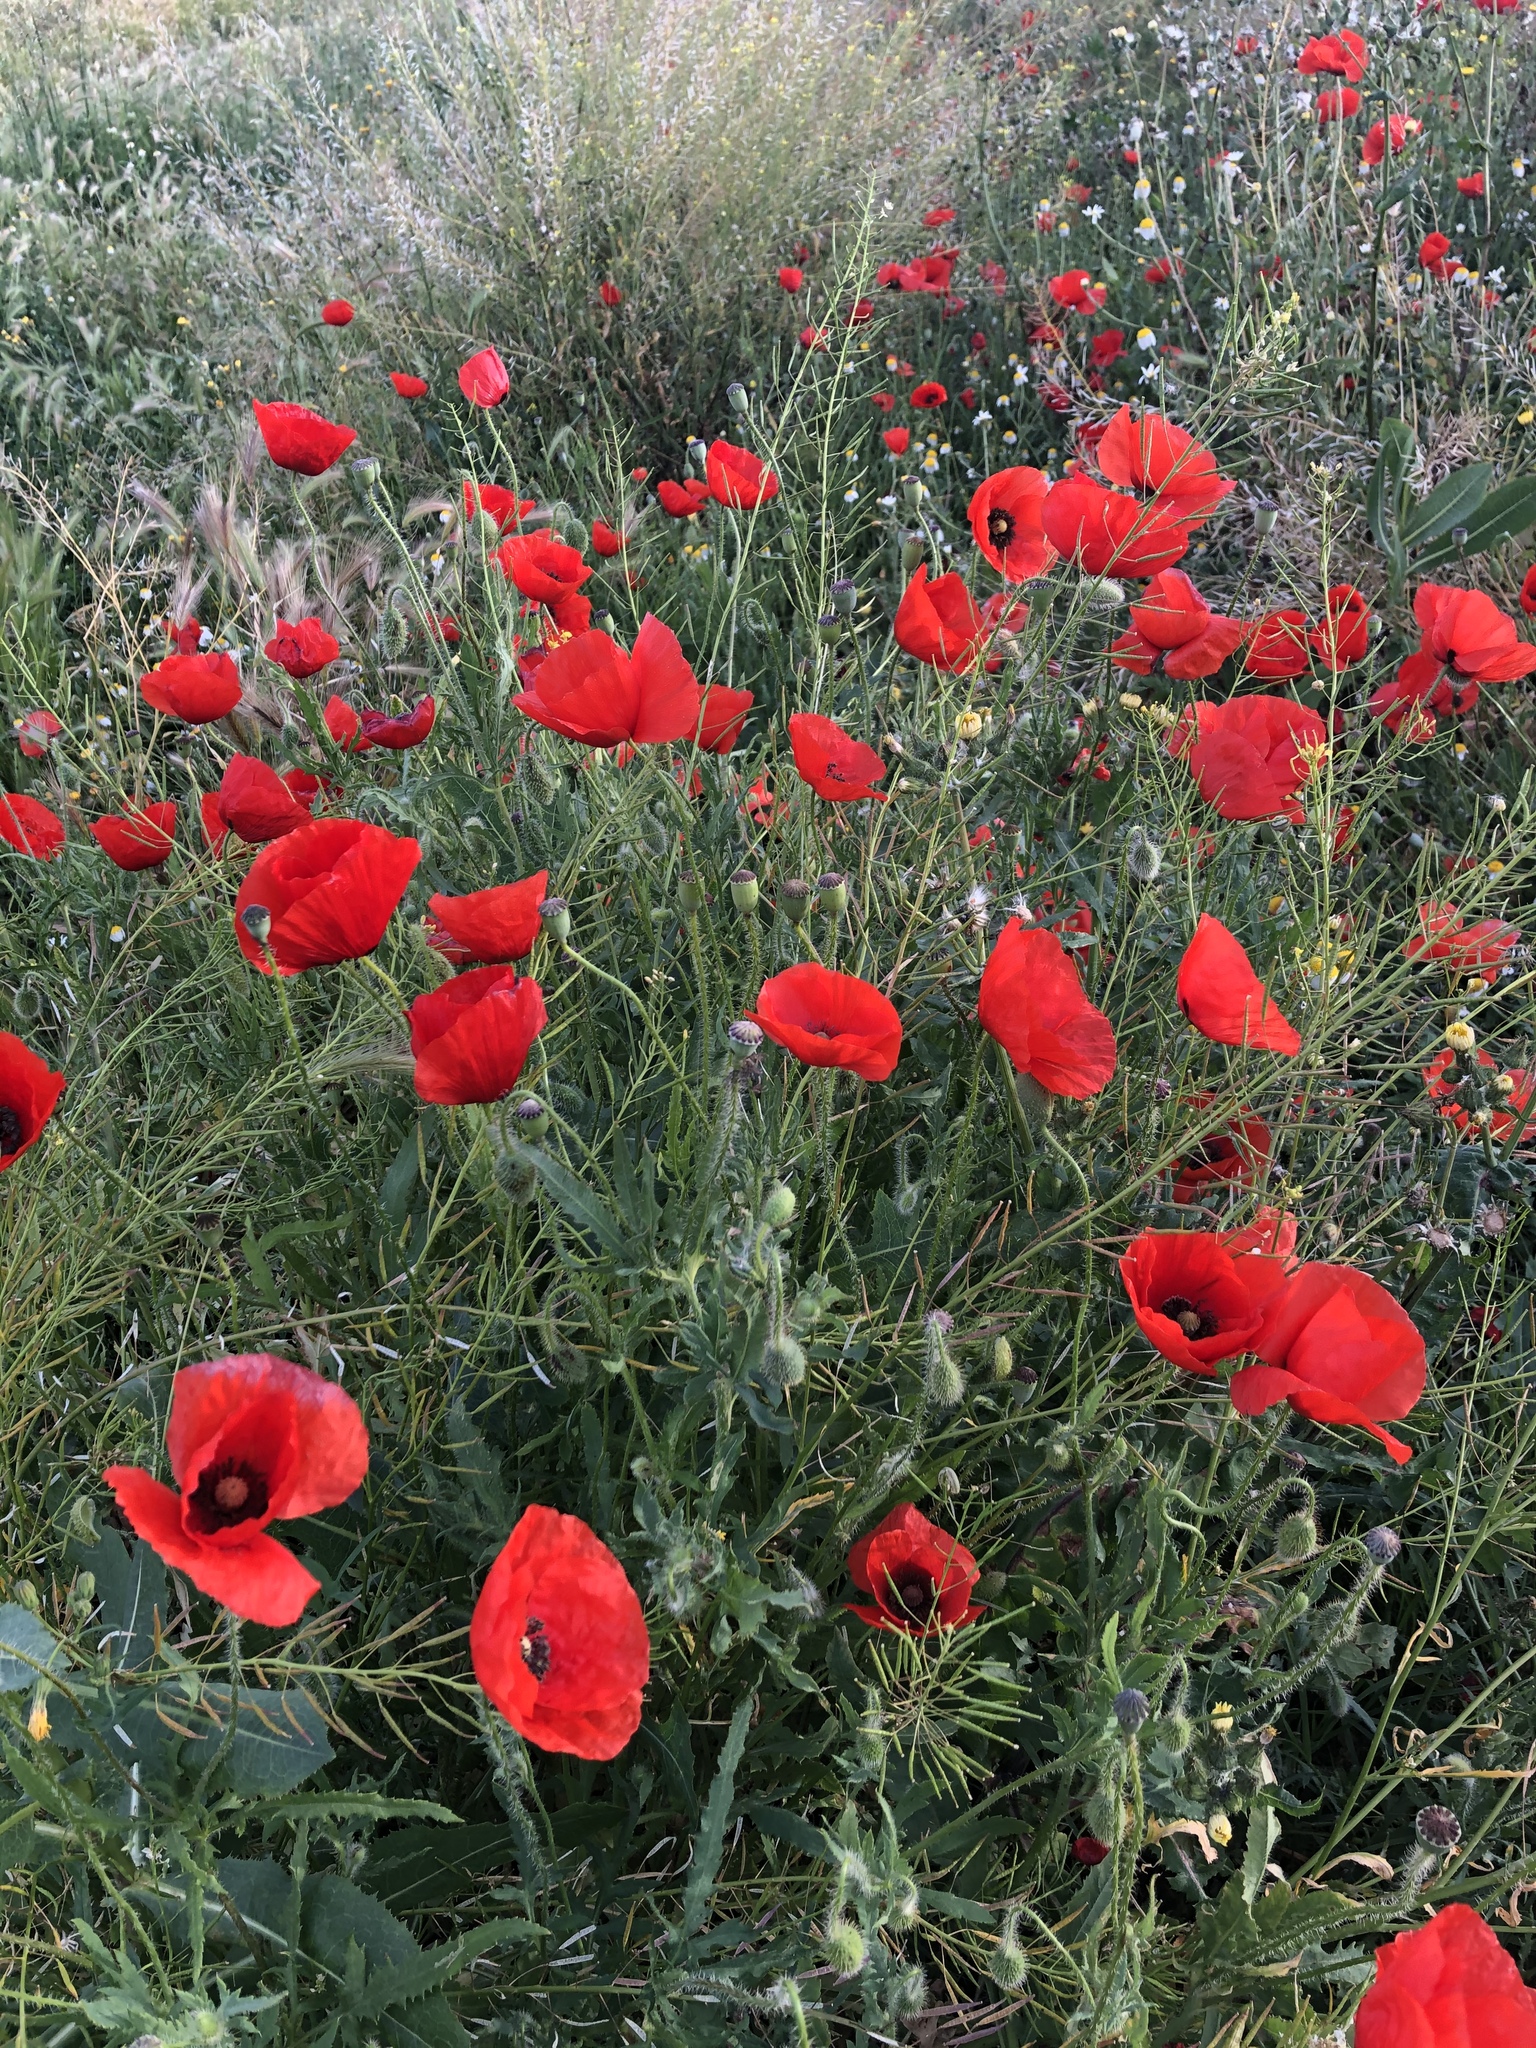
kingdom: Plantae
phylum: Tracheophyta
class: Magnoliopsida
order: Ranunculales
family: Papaveraceae
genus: Papaver
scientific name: Papaver rhoeas
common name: Corn poppy
